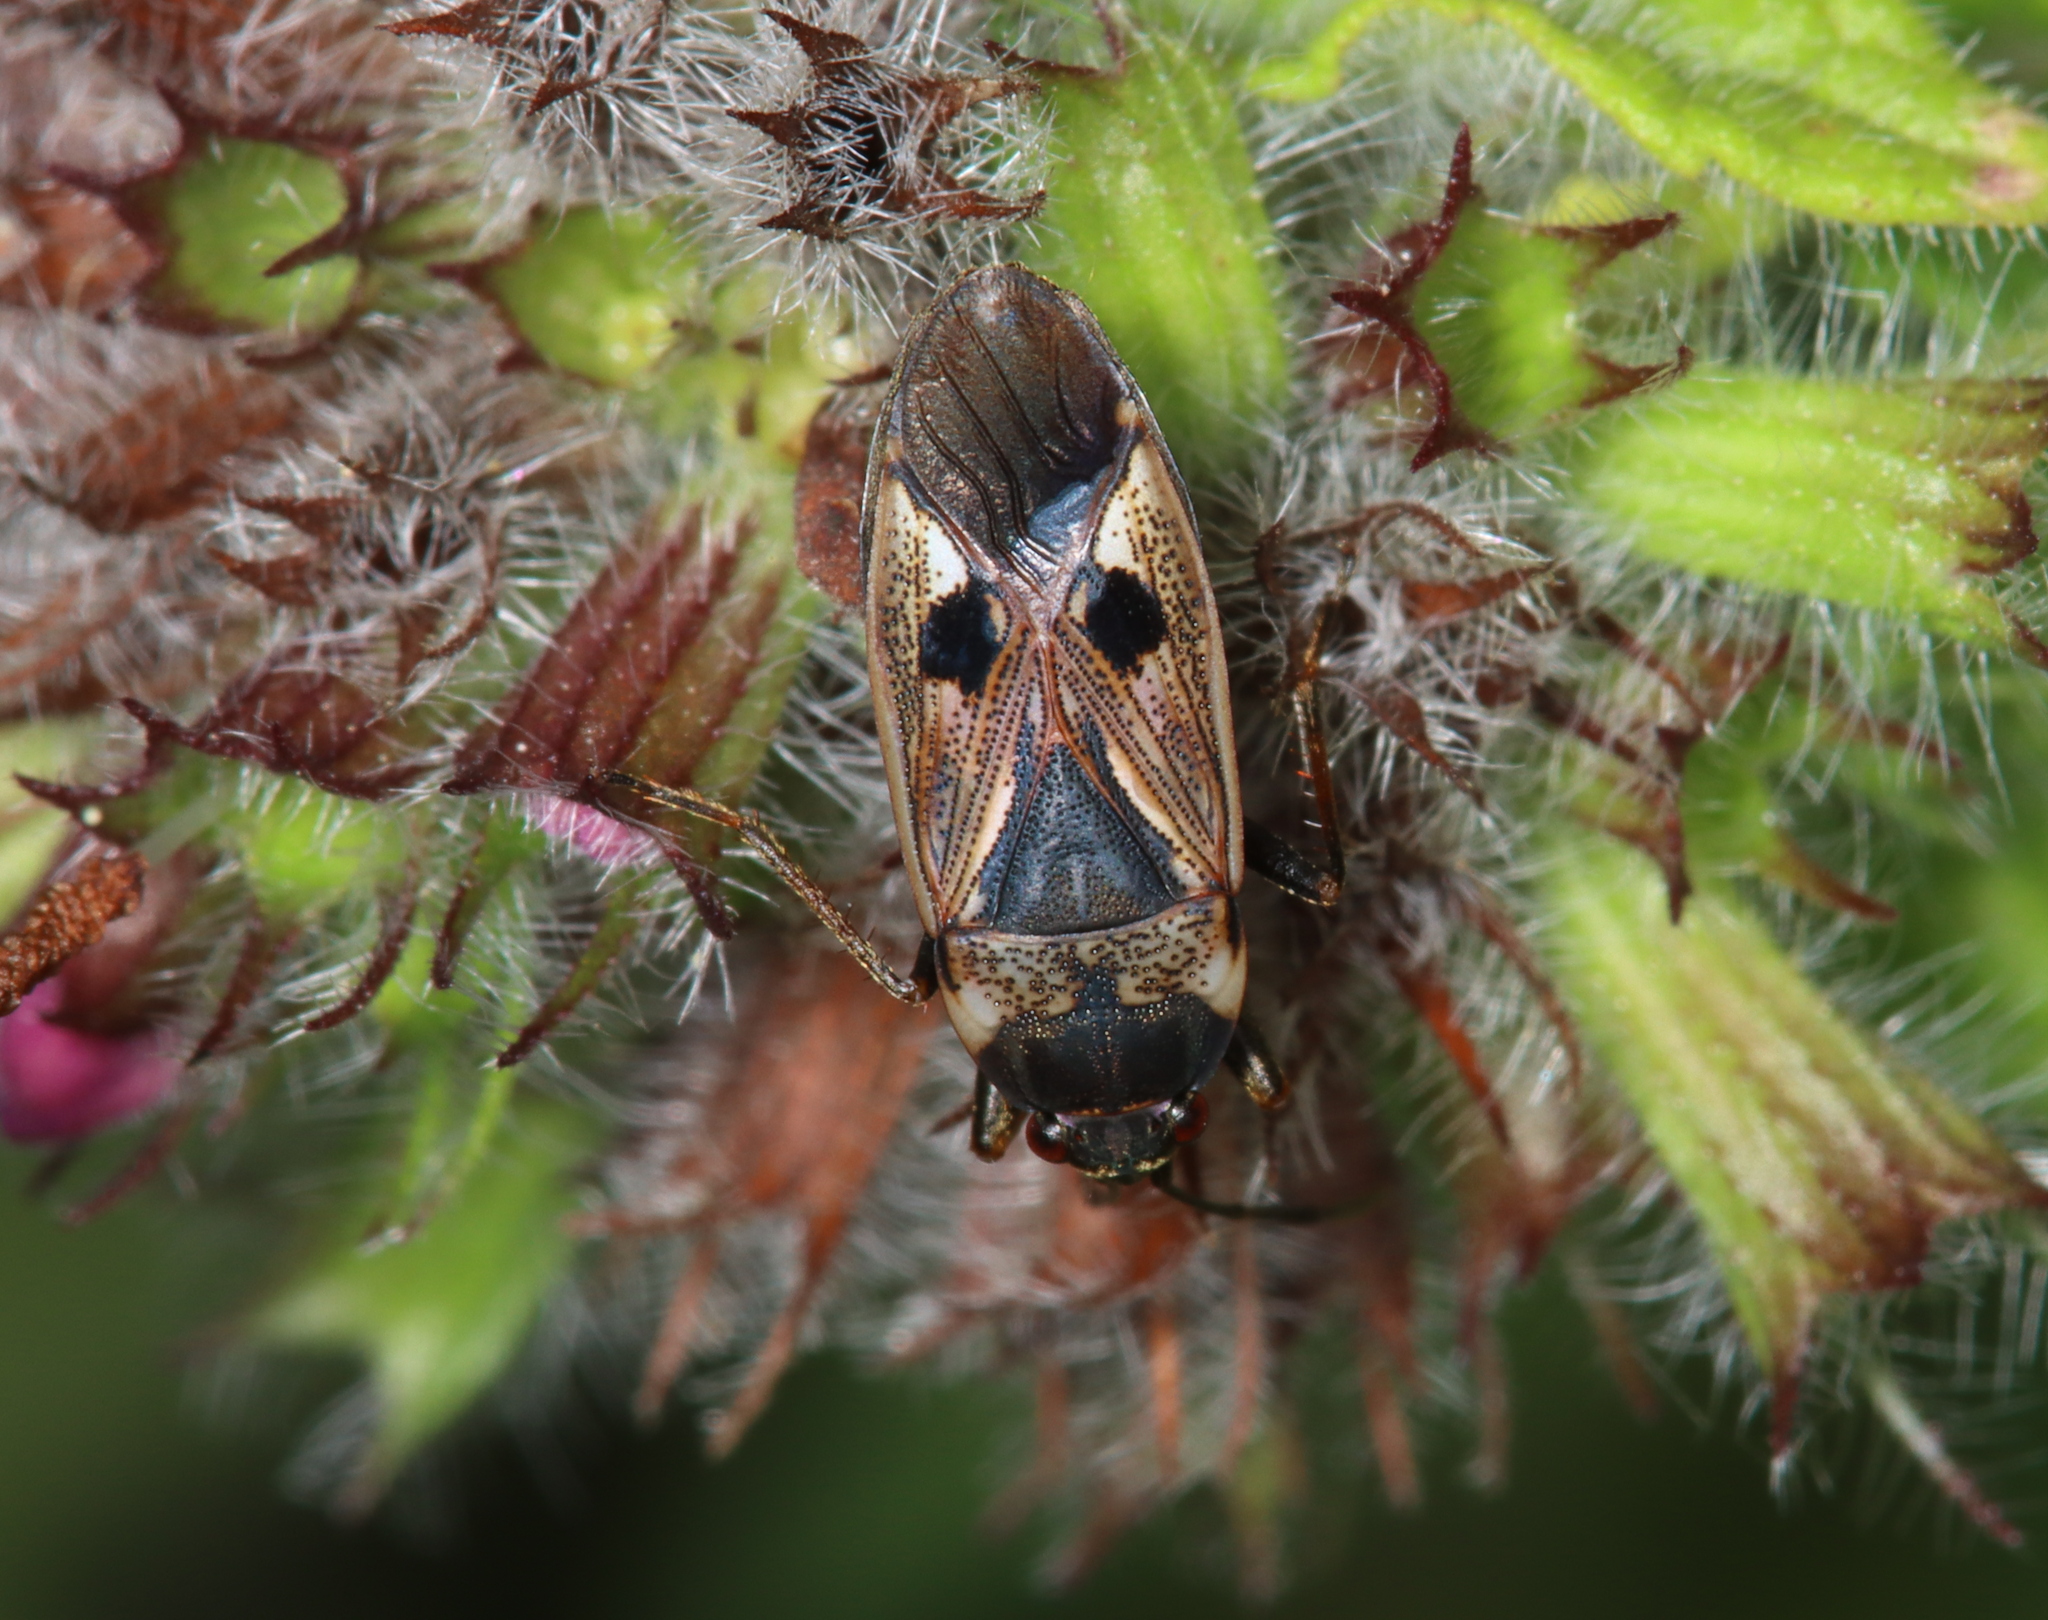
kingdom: Animalia
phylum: Arthropoda
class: Insecta
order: Hemiptera
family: Rhyparochromidae
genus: Rhyparochromus
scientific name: Rhyparochromus vulgaris
